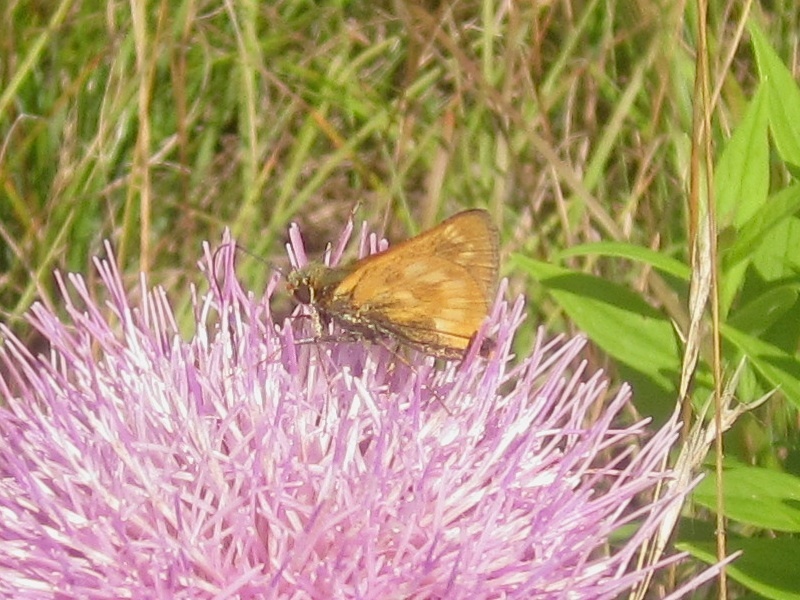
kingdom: Animalia
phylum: Arthropoda
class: Insecta
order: Lepidoptera
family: Hesperiidae
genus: Polites
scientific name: Polites mystic
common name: Long dash
